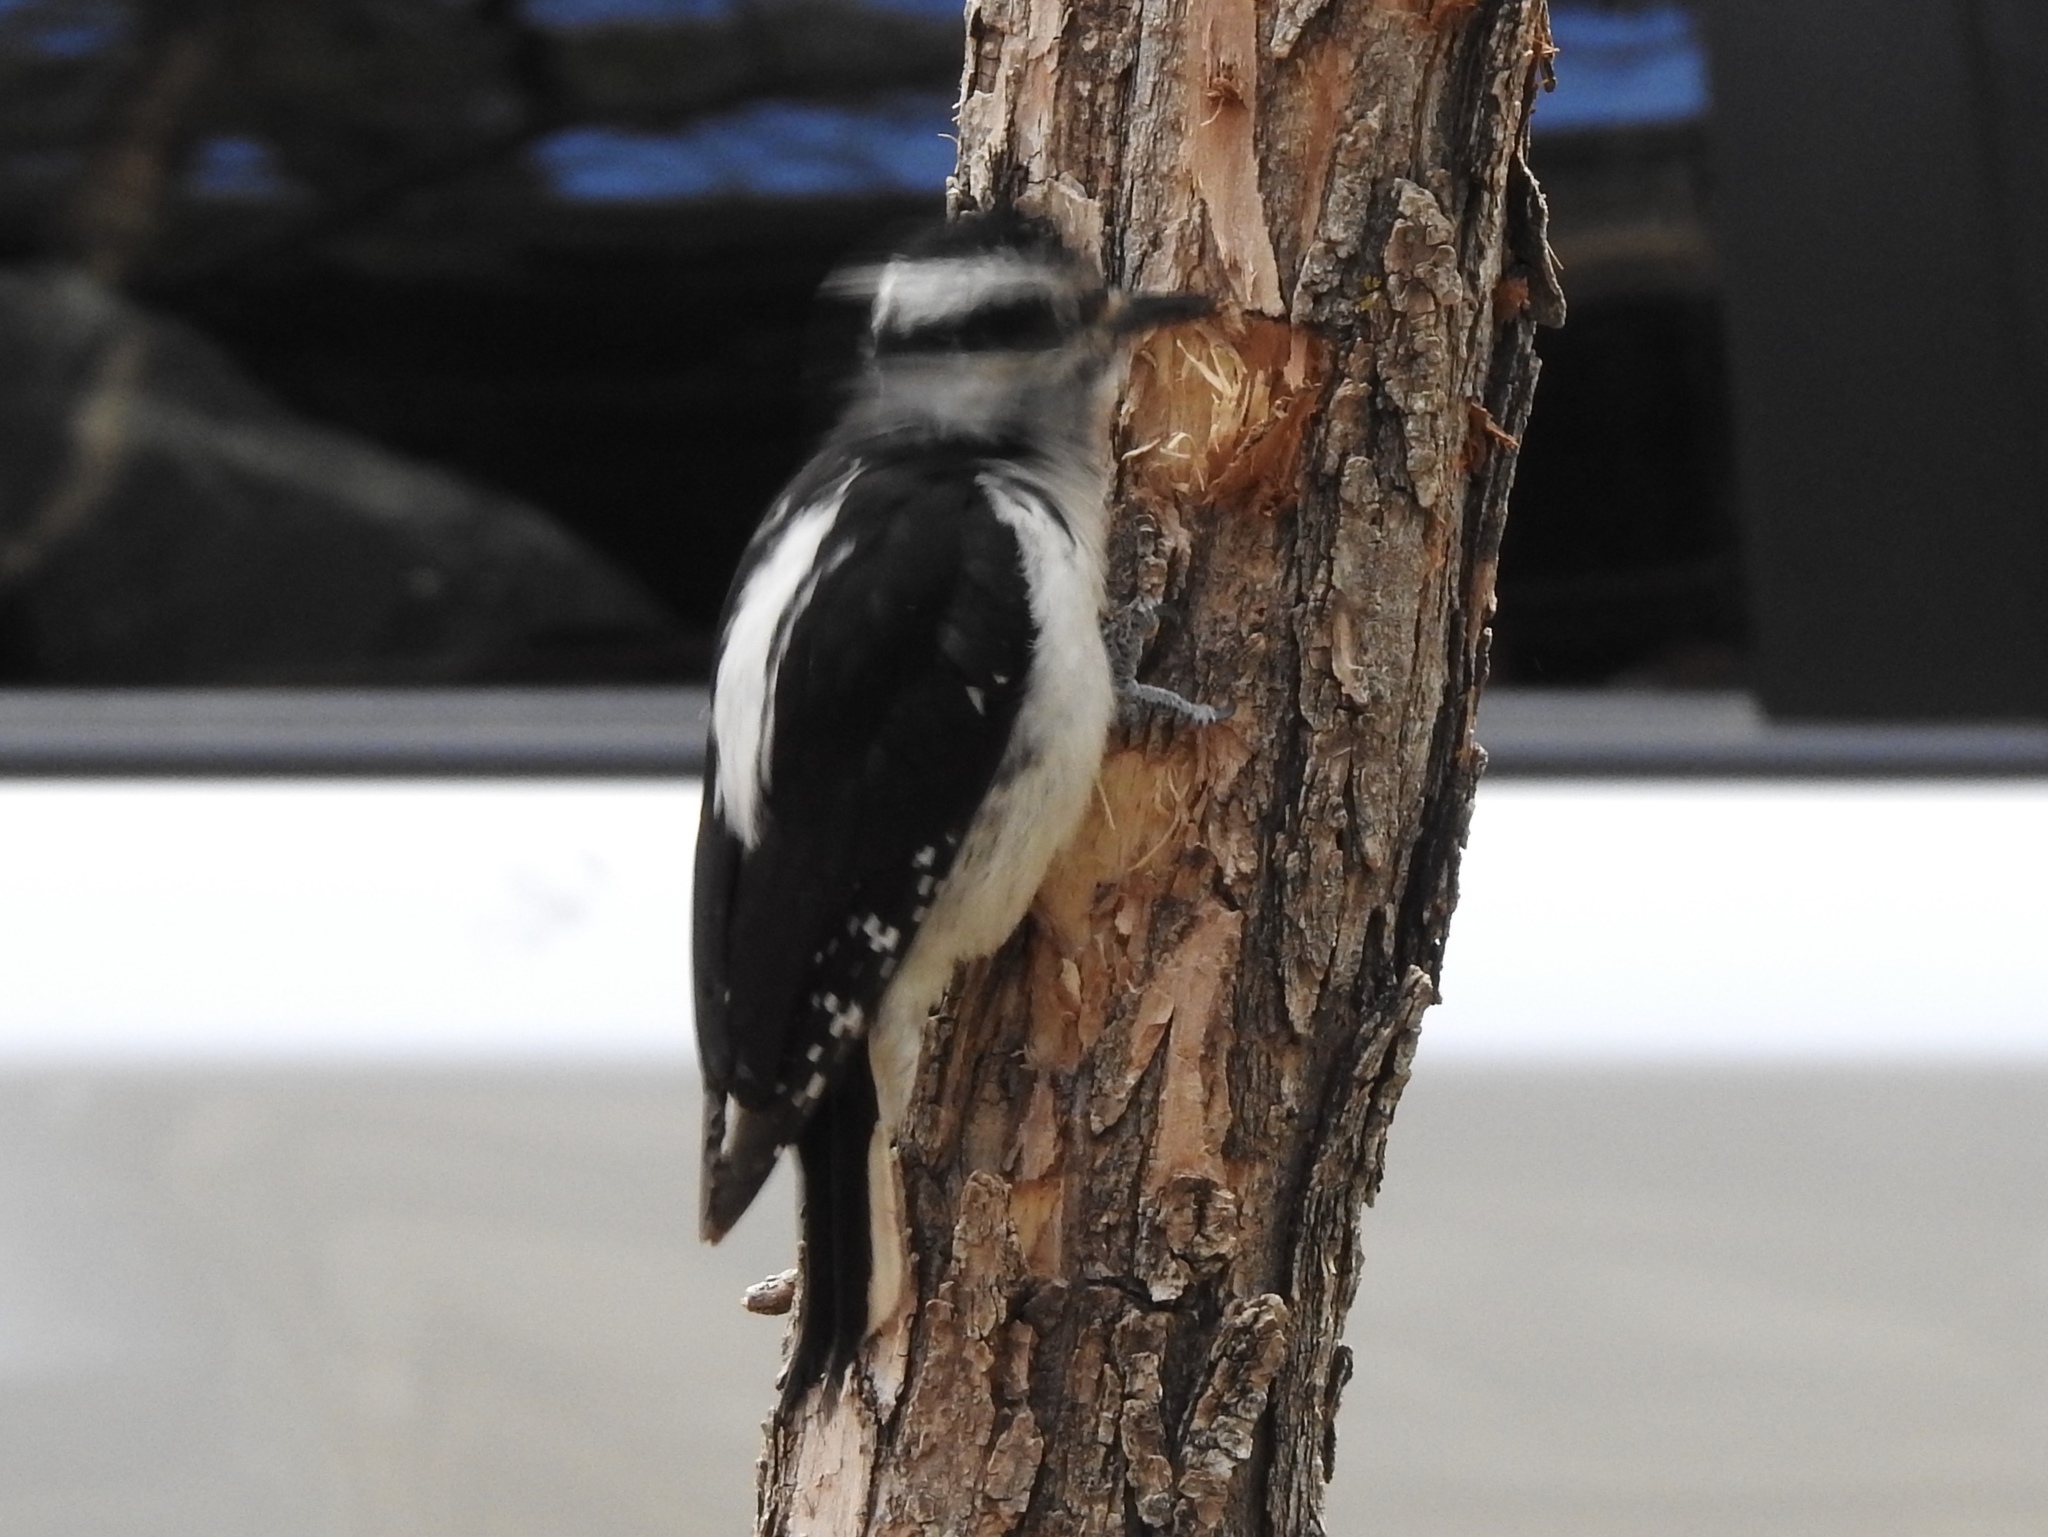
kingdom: Animalia
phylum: Chordata
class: Aves
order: Piciformes
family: Picidae
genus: Leuconotopicus
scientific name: Leuconotopicus villosus
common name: Hairy woodpecker
